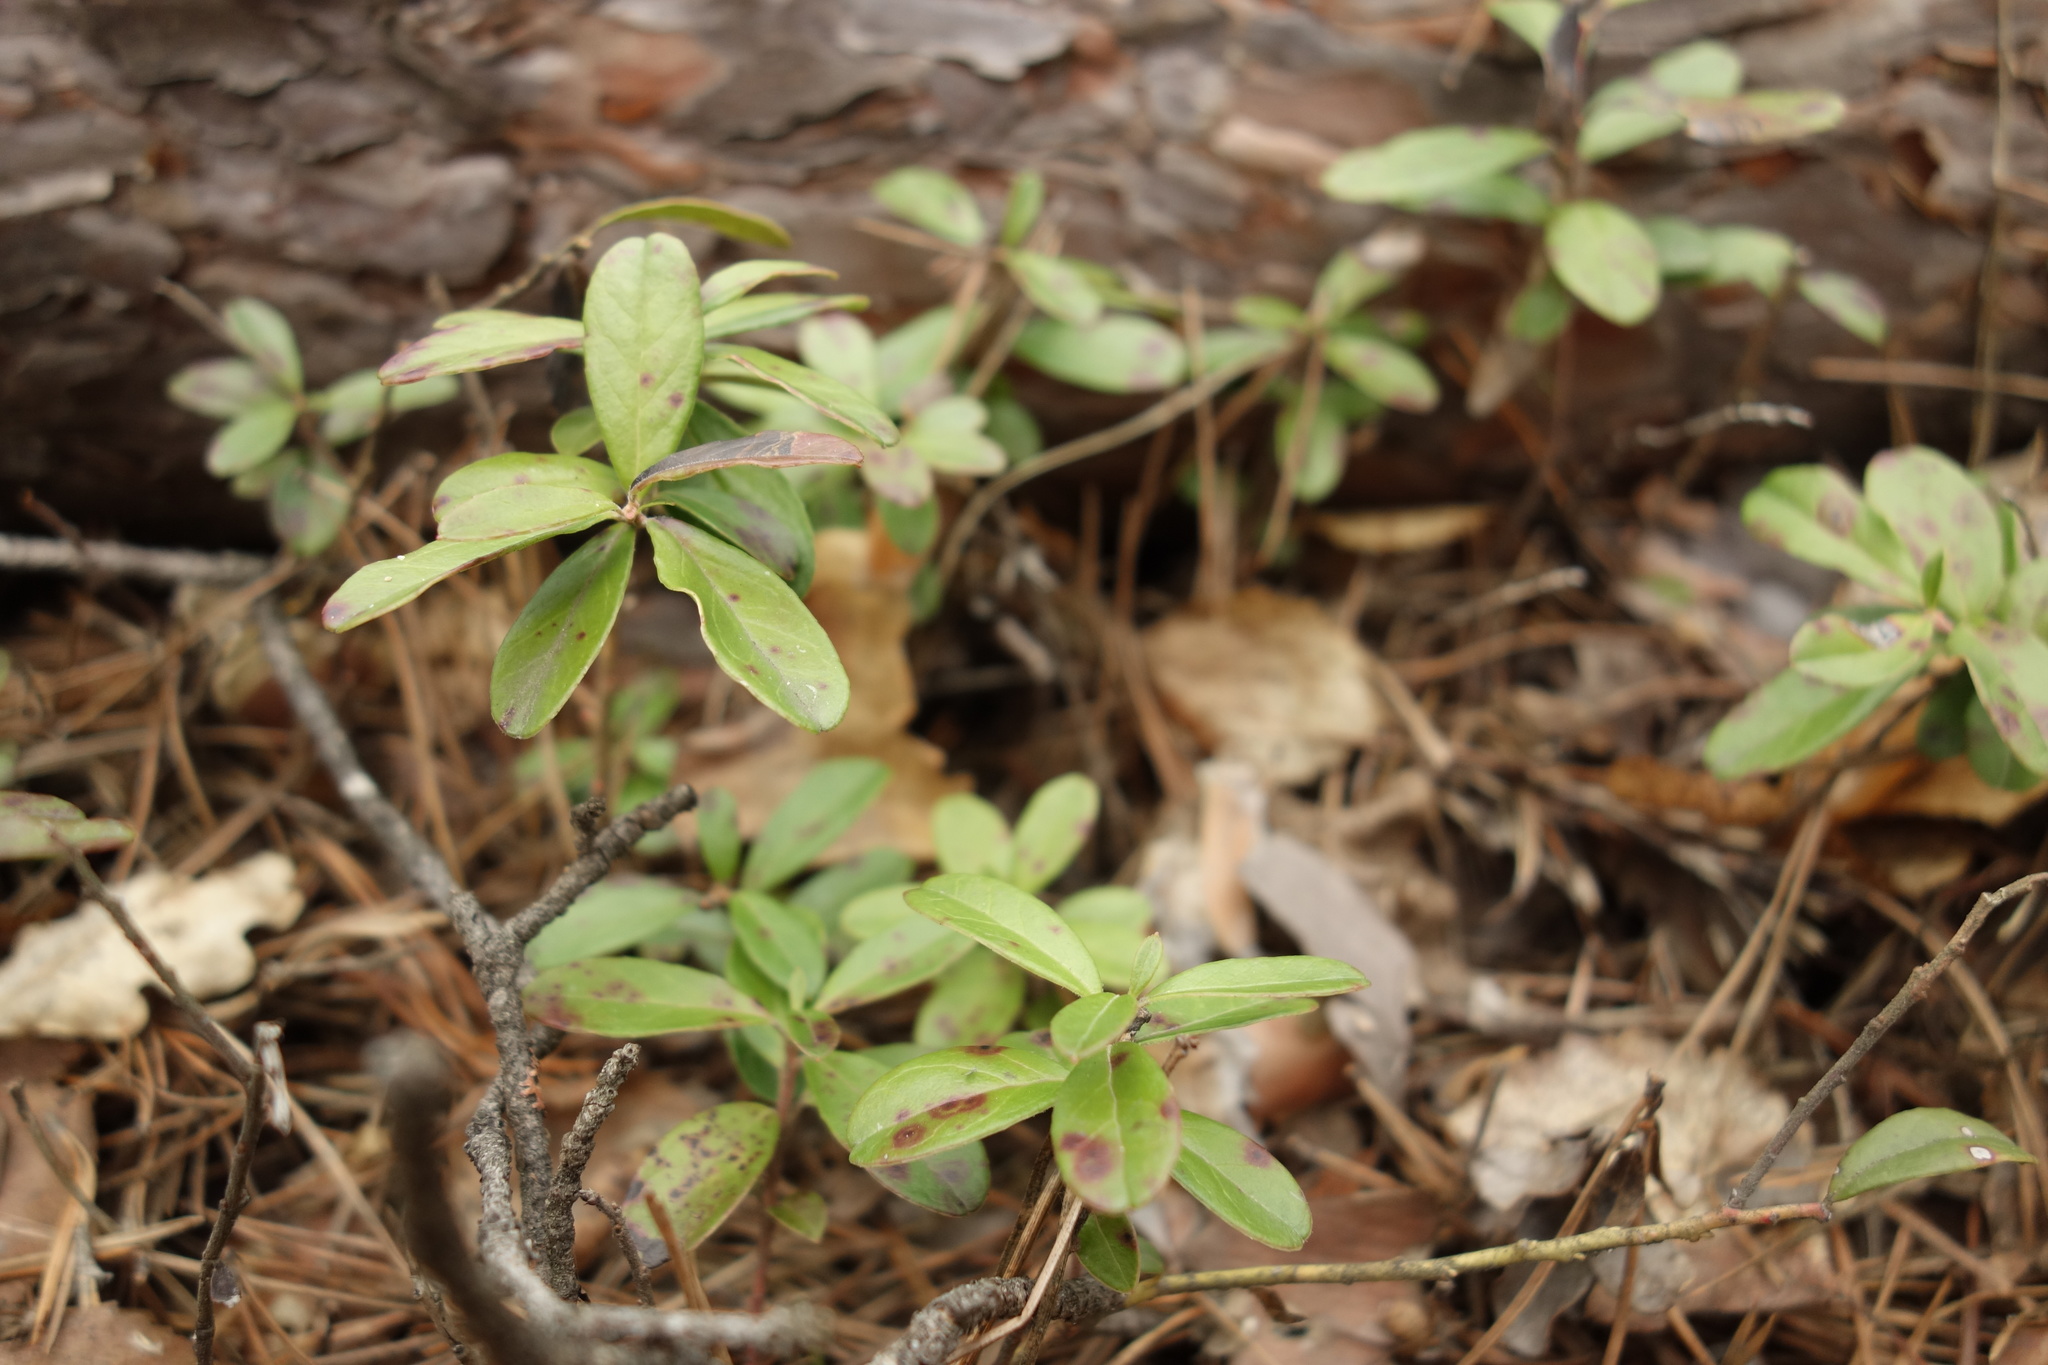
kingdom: Plantae
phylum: Tracheophyta
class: Magnoliopsida
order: Ericales
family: Ericaceae
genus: Vaccinium
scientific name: Vaccinium vitis-idaea
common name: Cowberry
